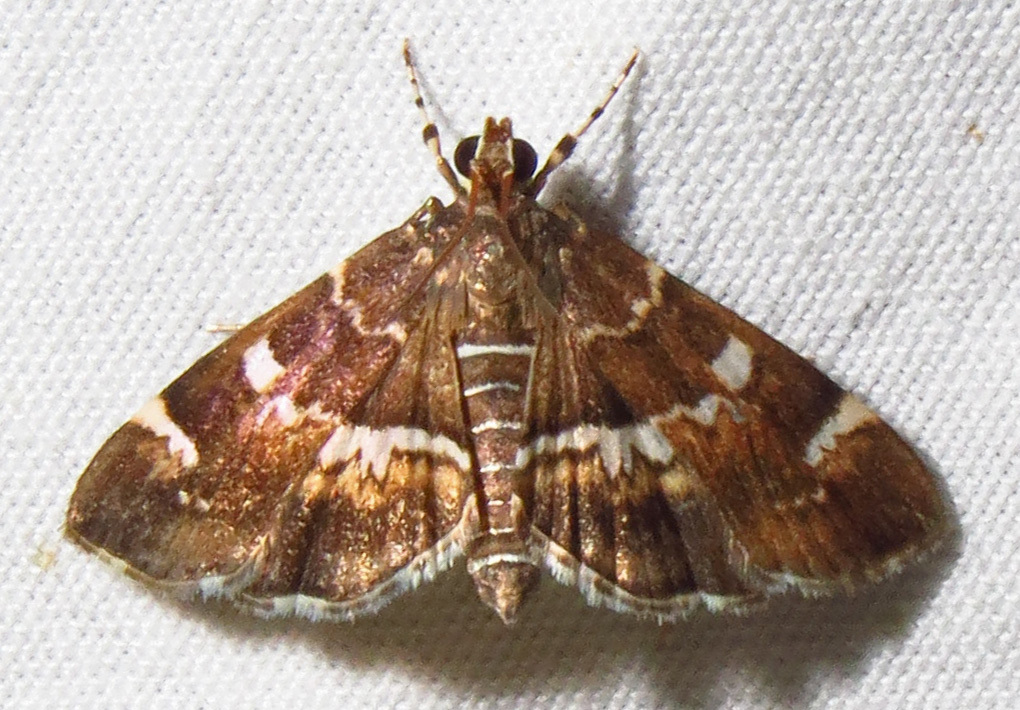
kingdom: Animalia
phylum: Arthropoda
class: Insecta
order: Lepidoptera
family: Crambidae
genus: Hymenia
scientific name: Hymenia perspectalis
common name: Spotted beet webworm
